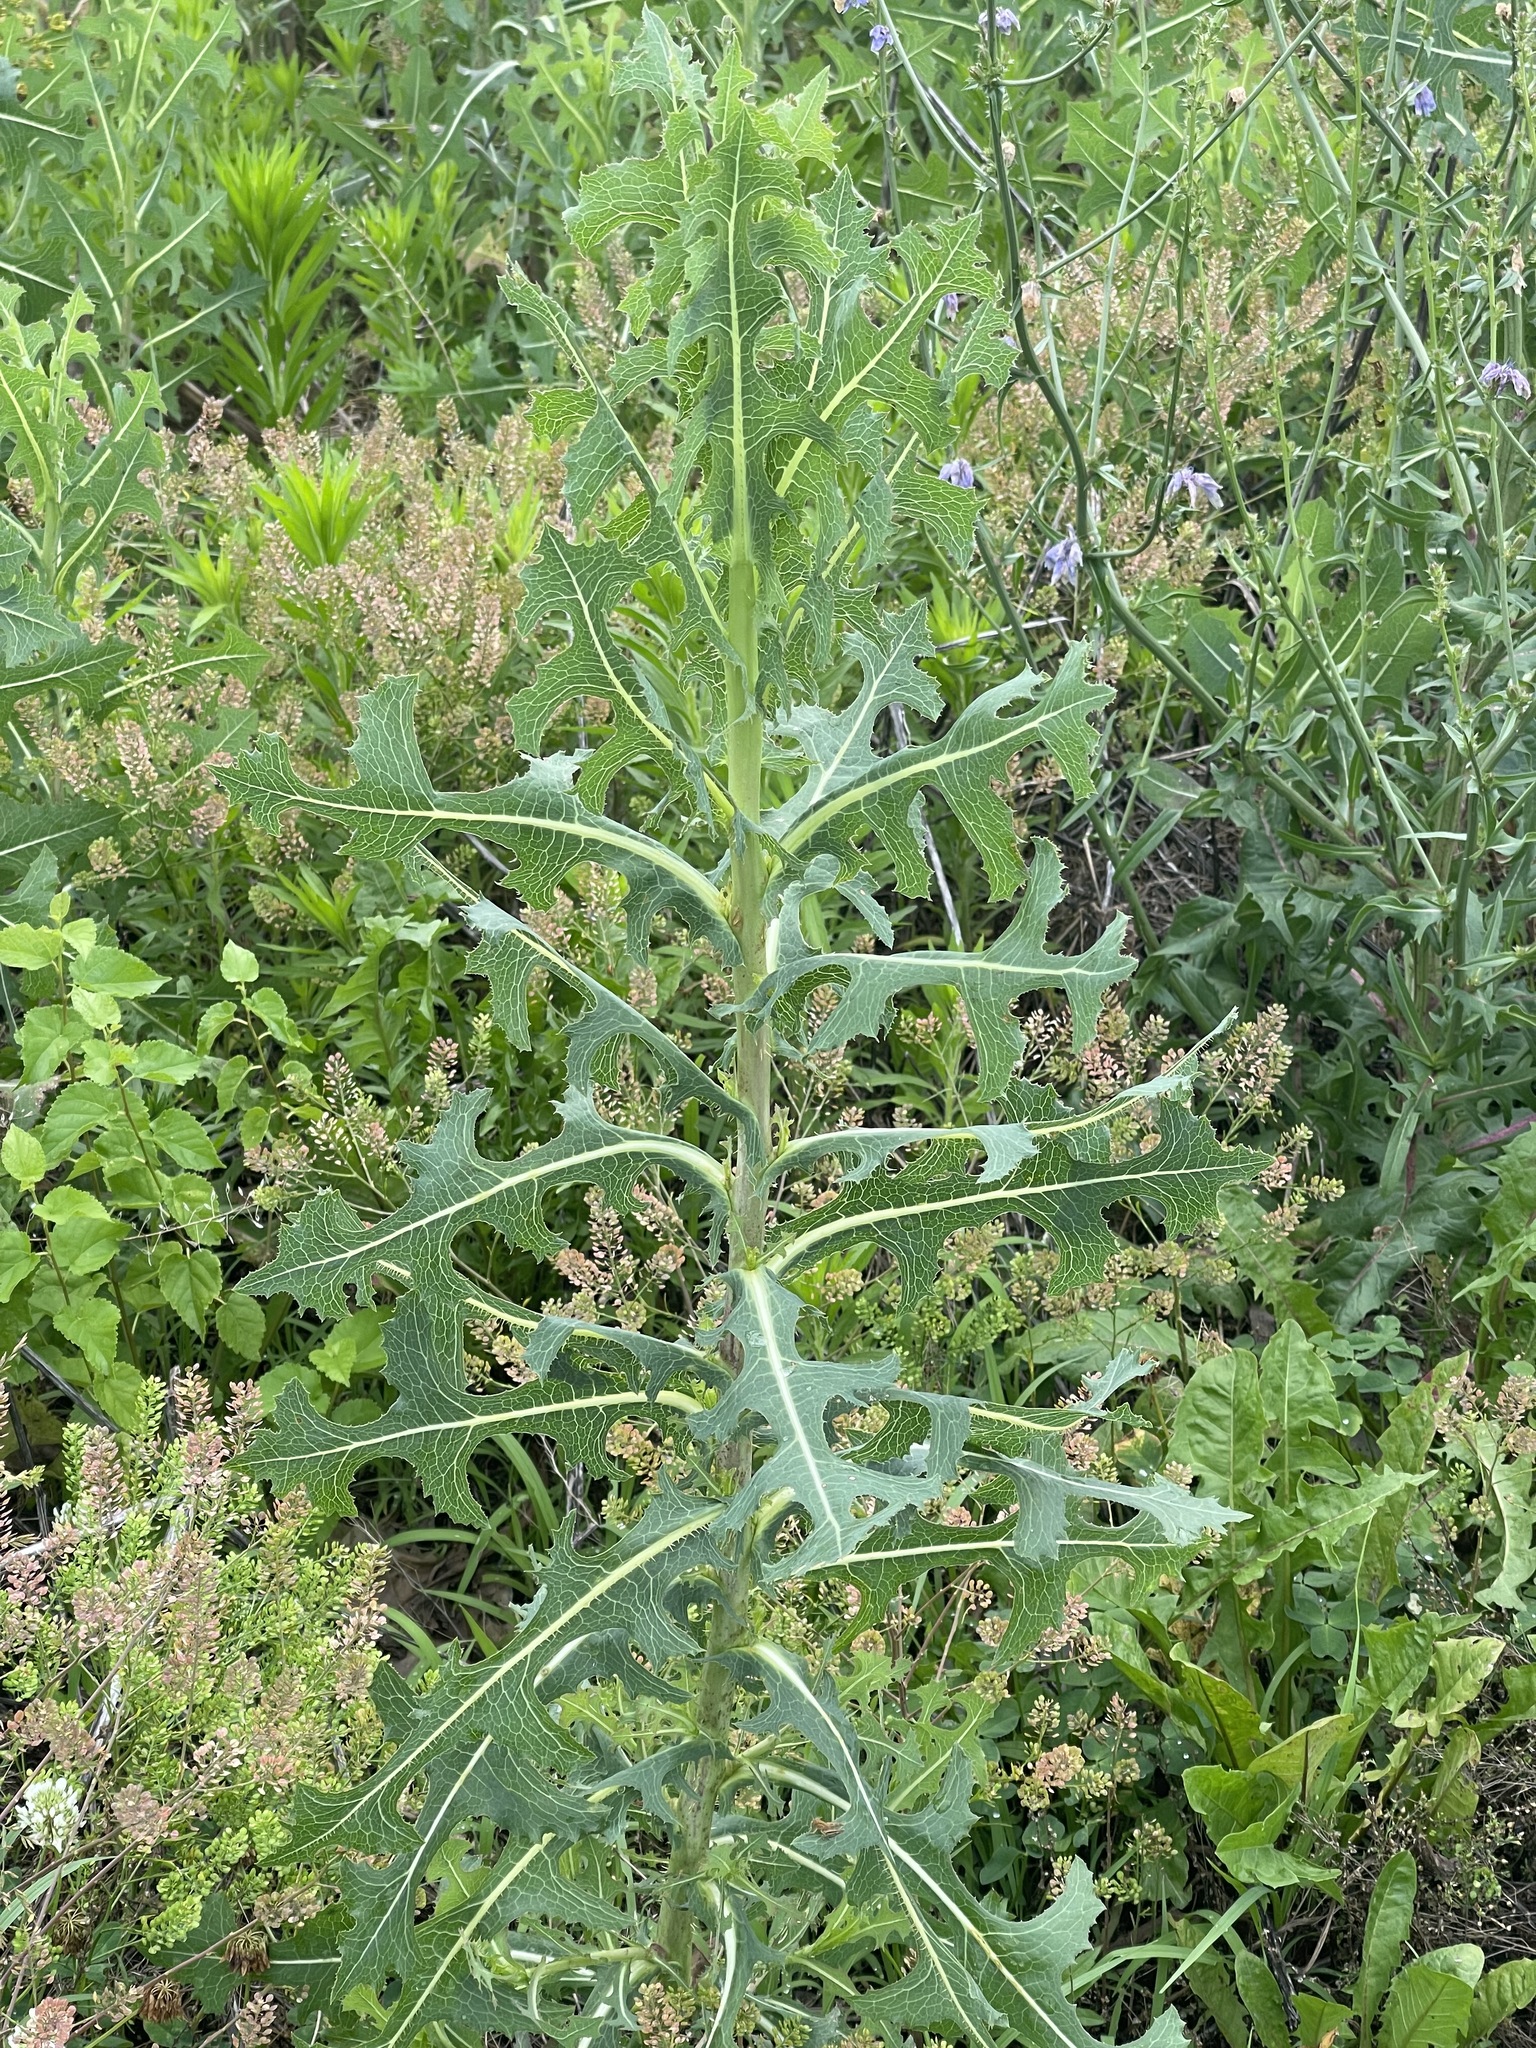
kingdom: Plantae
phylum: Tracheophyta
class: Magnoliopsida
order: Asterales
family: Asteraceae
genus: Lactuca
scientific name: Lactuca serriola
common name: Prickly lettuce
